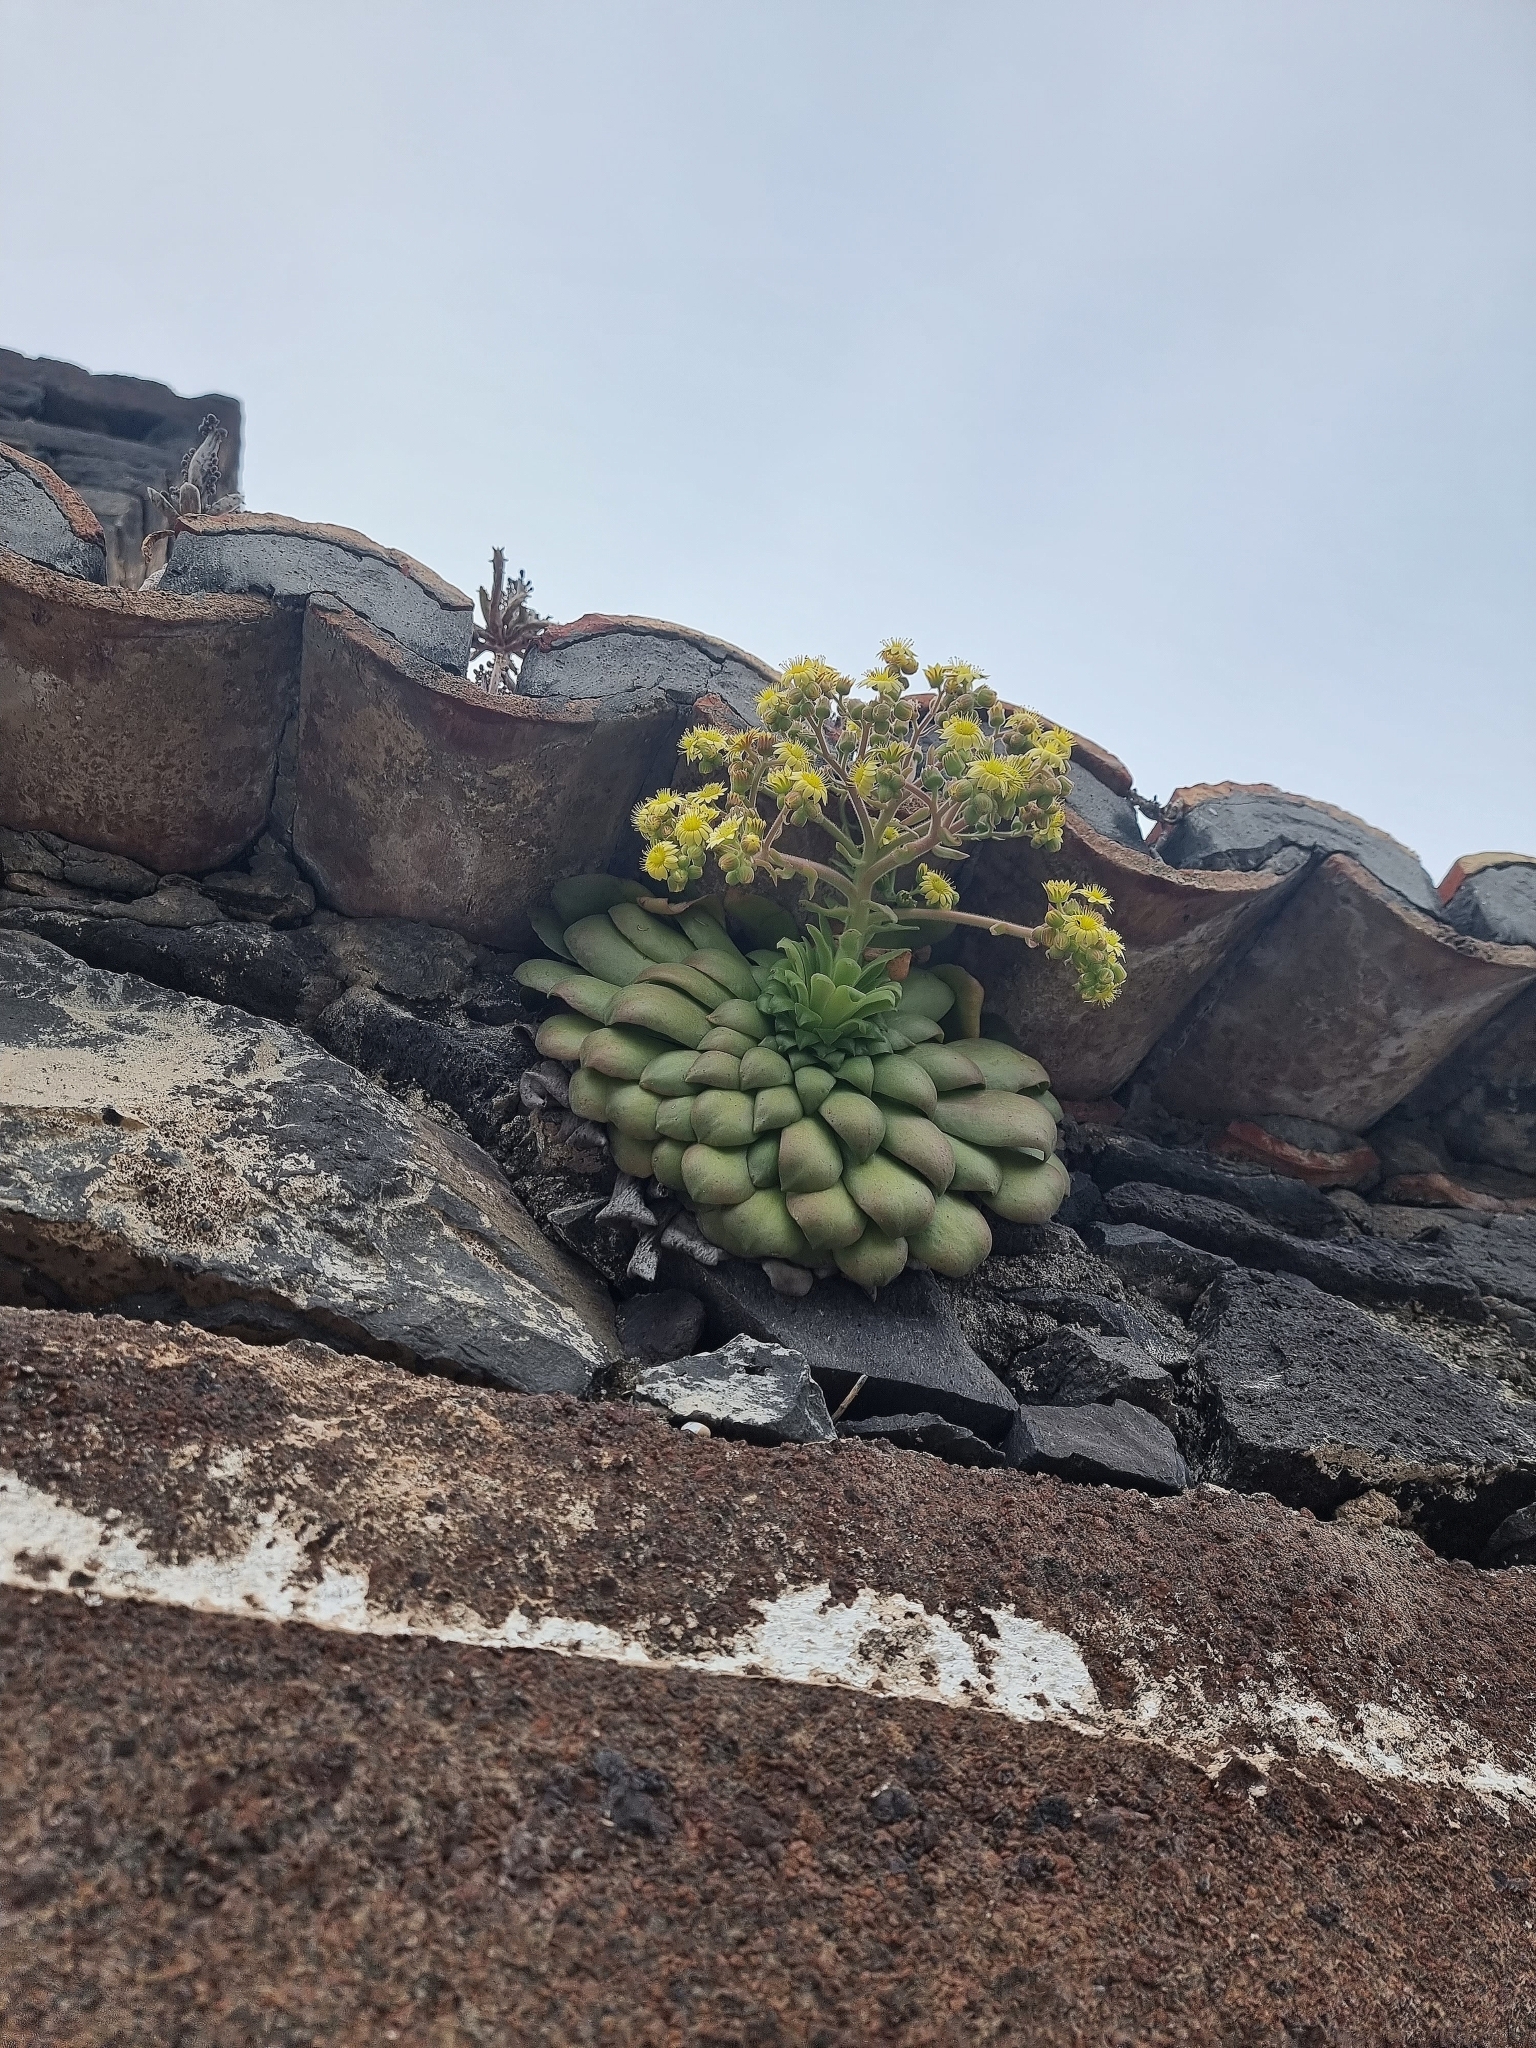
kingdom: Plantae
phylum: Tracheophyta
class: Magnoliopsida
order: Saxifragales
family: Crassulaceae
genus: Aeonium
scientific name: Aeonium glandulosum
